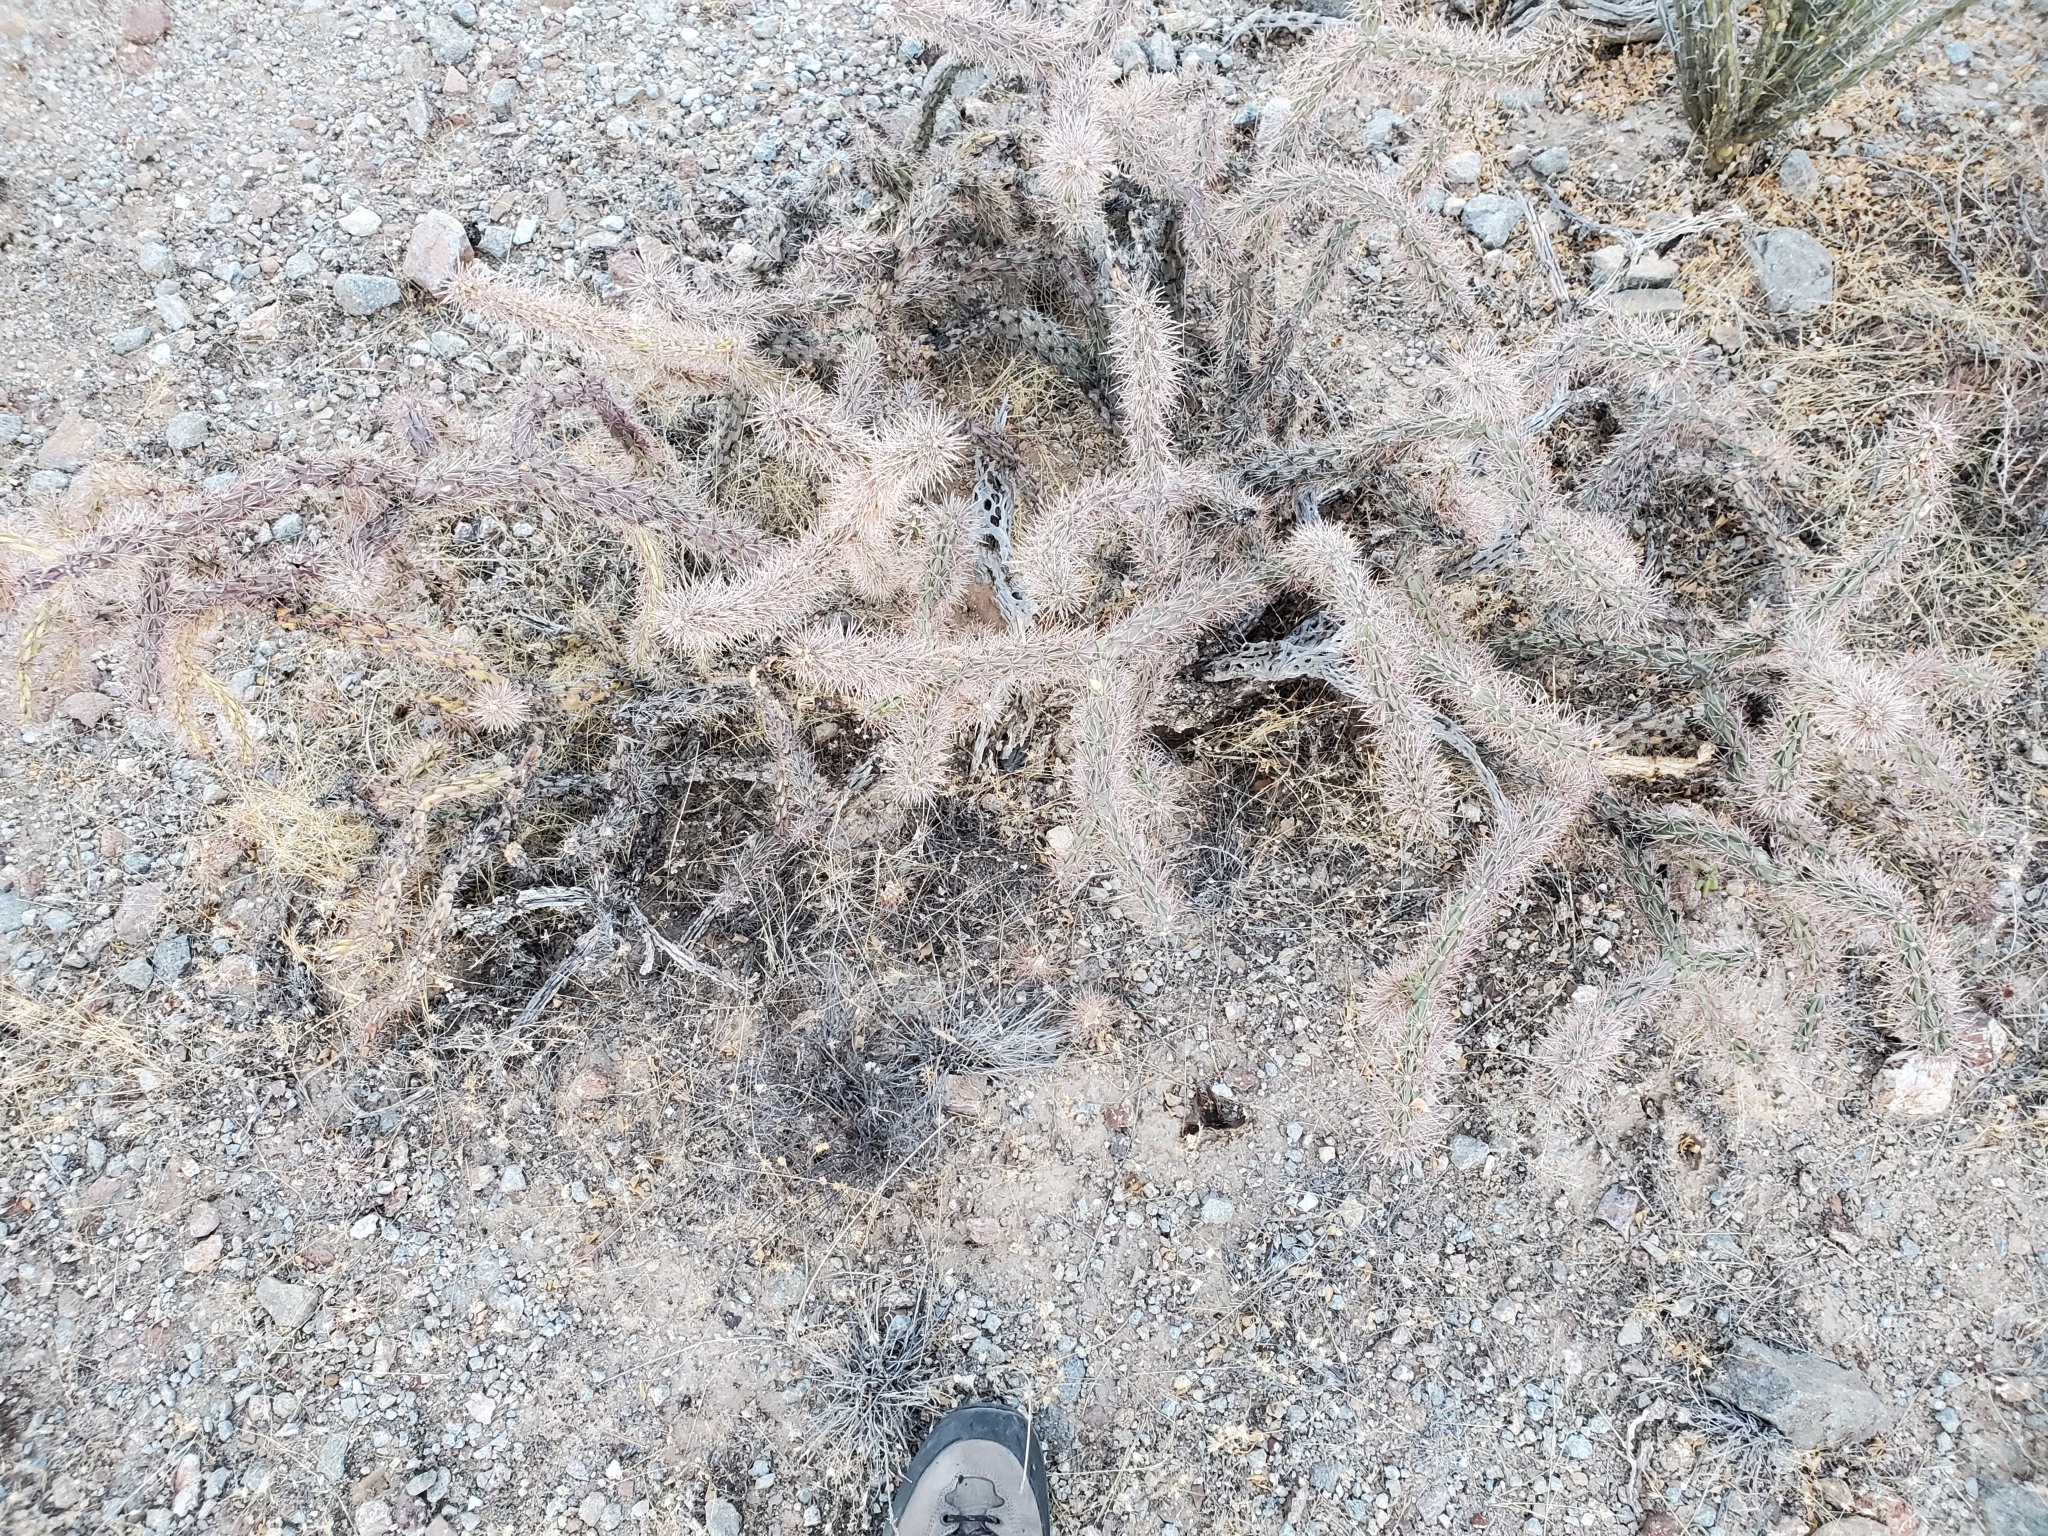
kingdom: Plantae
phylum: Tracheophyta
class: Magnoliopsida
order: Caryophyllales
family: Cactaceae
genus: Cylindropuntia
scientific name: Cylindropuntia acanthocarpa
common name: Buckhorn cholla
